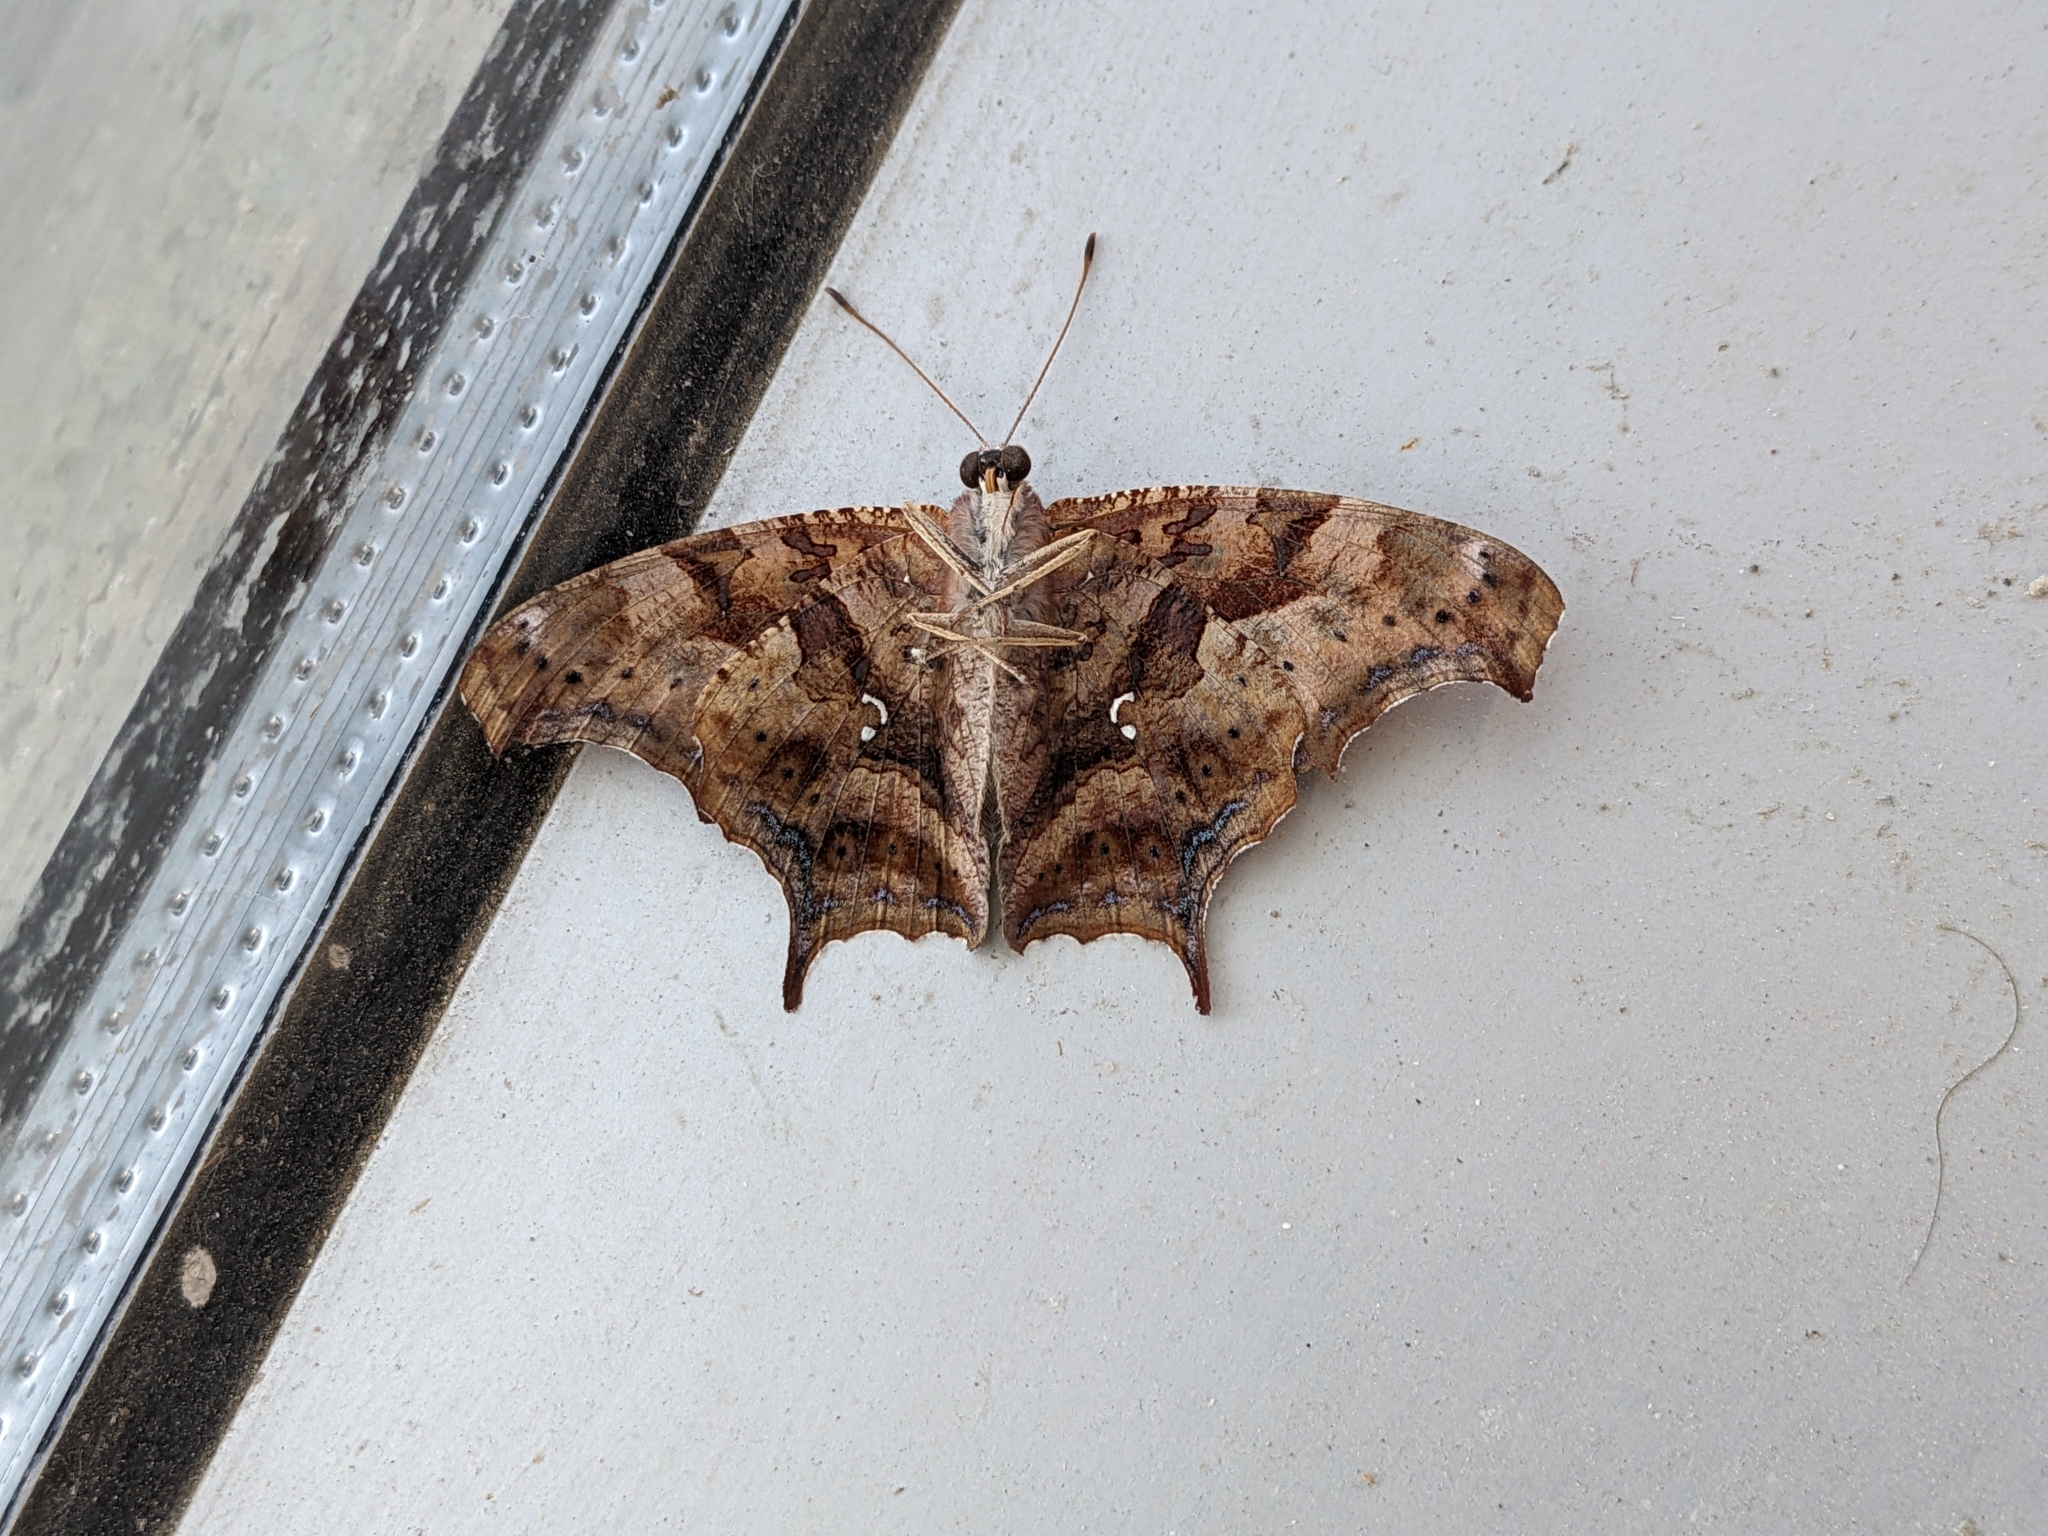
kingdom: Animalia
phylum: Arthropoda
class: Insecta
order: Lepidoptera
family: Nymphalidae
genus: Polygonia
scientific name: Polygonia interrogationis
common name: Question mark
